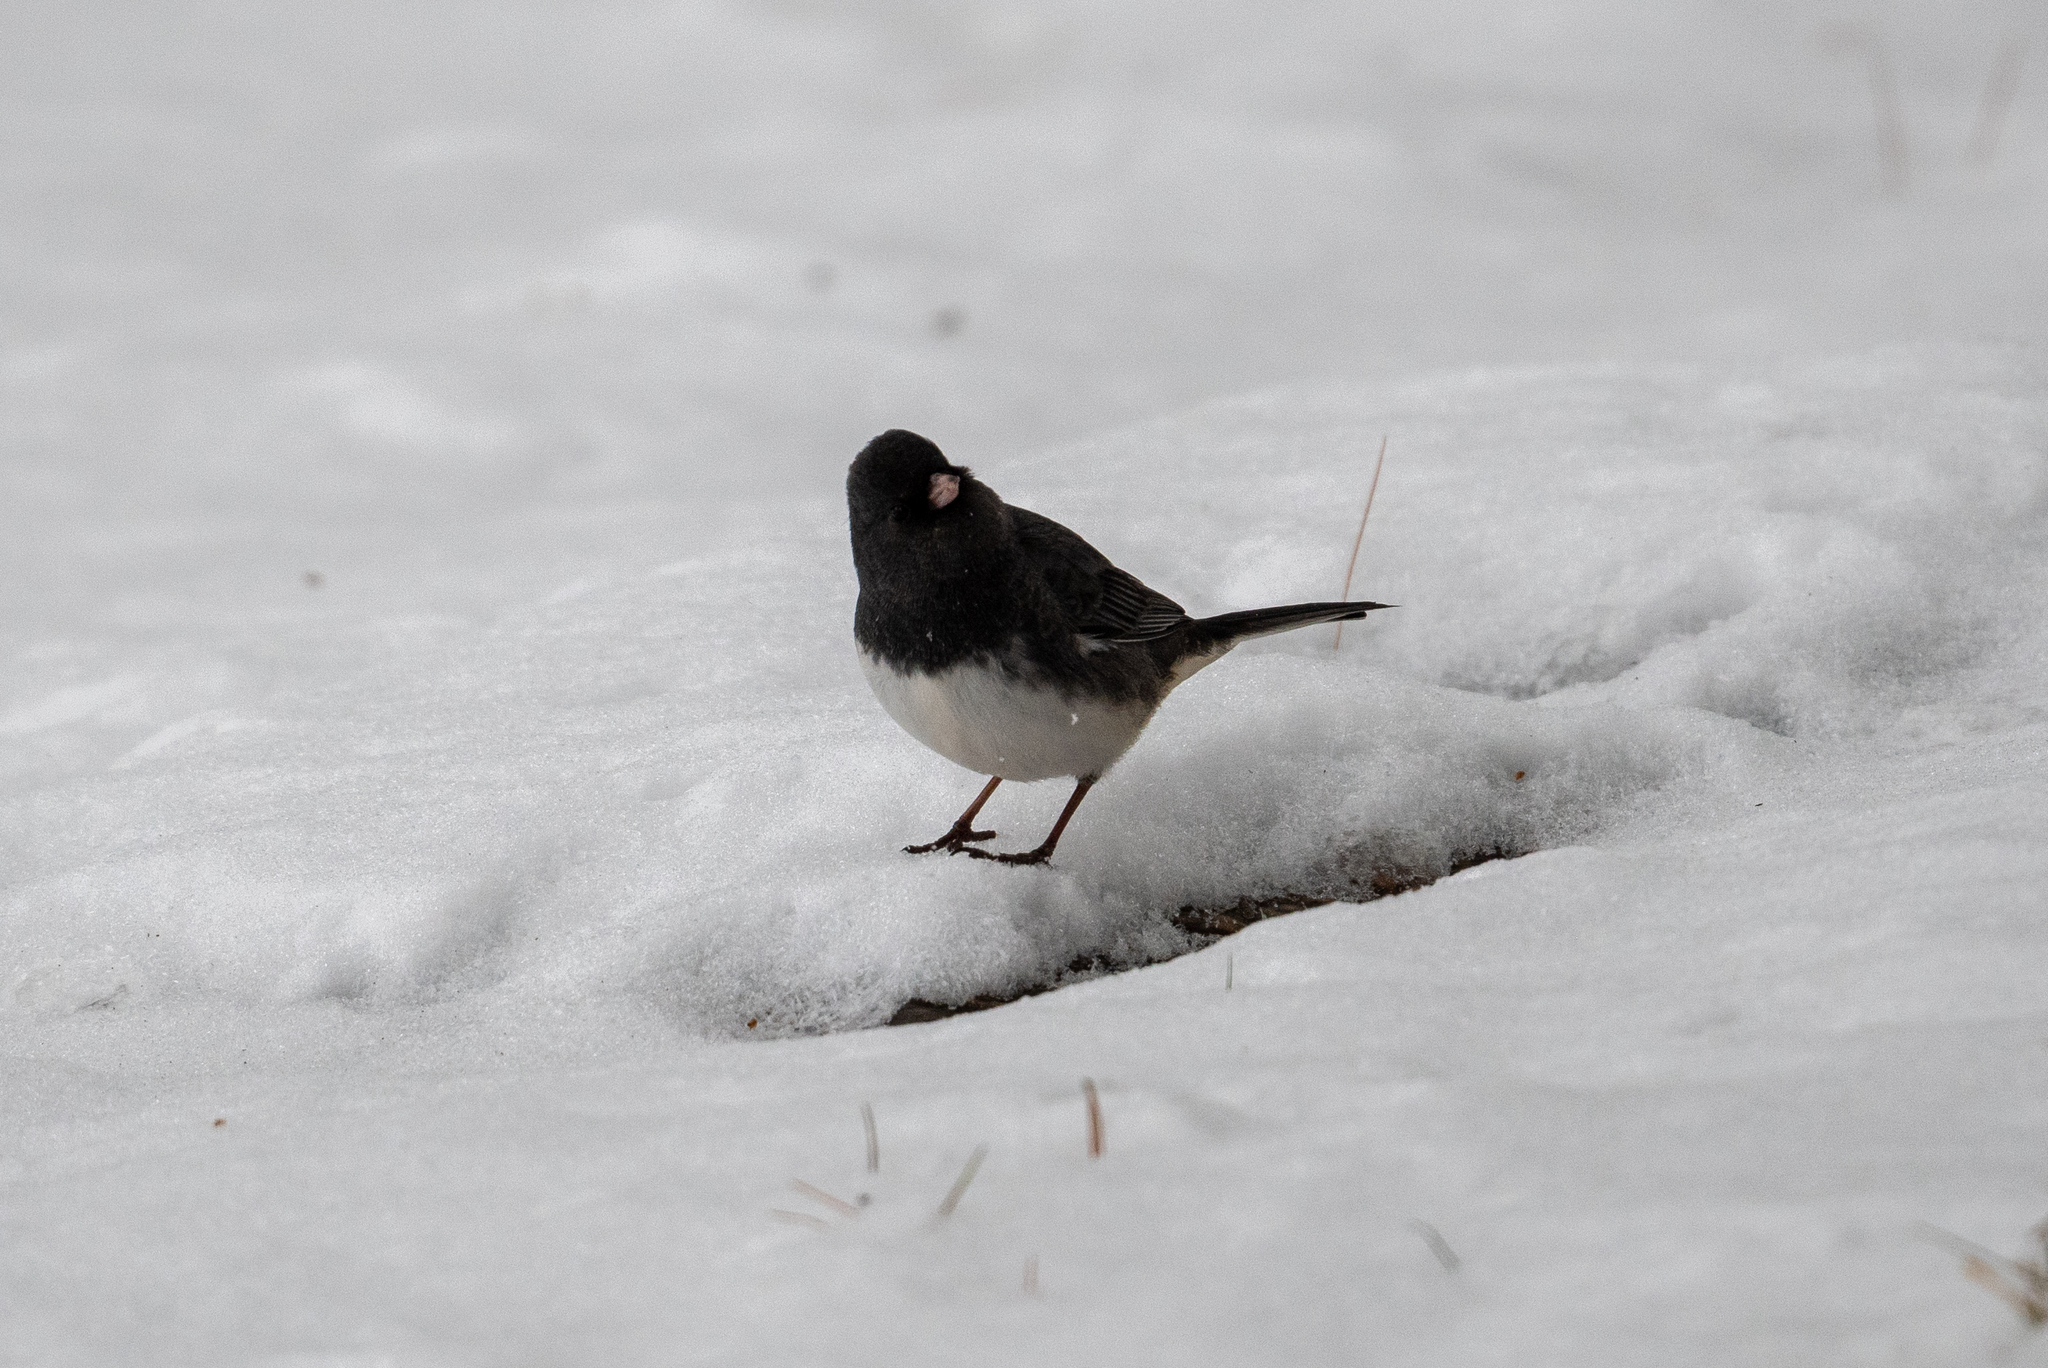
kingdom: Animalia
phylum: Chordata
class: Aves
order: Passeriformes
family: Passerellidae
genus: Junco
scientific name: Junco hyemalis
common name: Dark-eyed junco
